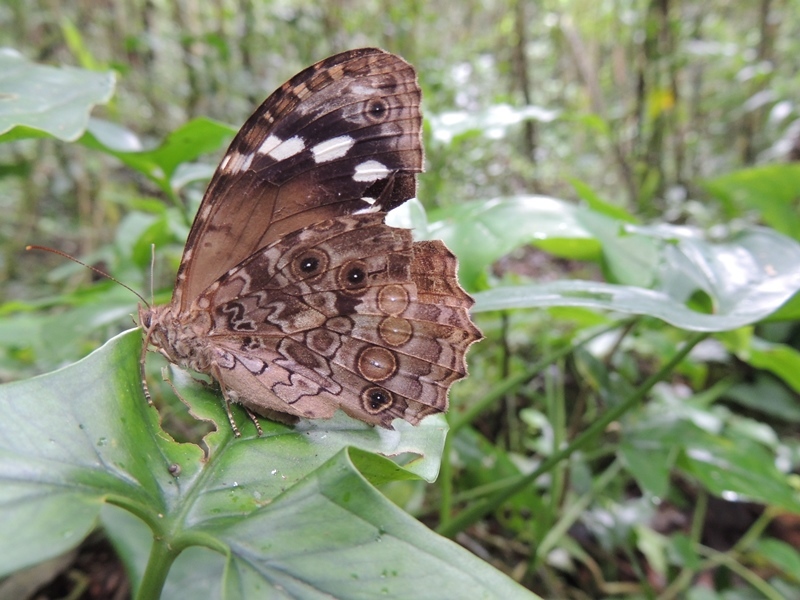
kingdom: Animalia
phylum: Arthropoda
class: Insecta
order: Lepidoptera
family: Nymphalidae
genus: Manataria
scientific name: Manataria maculata
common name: White-spotted satyr
